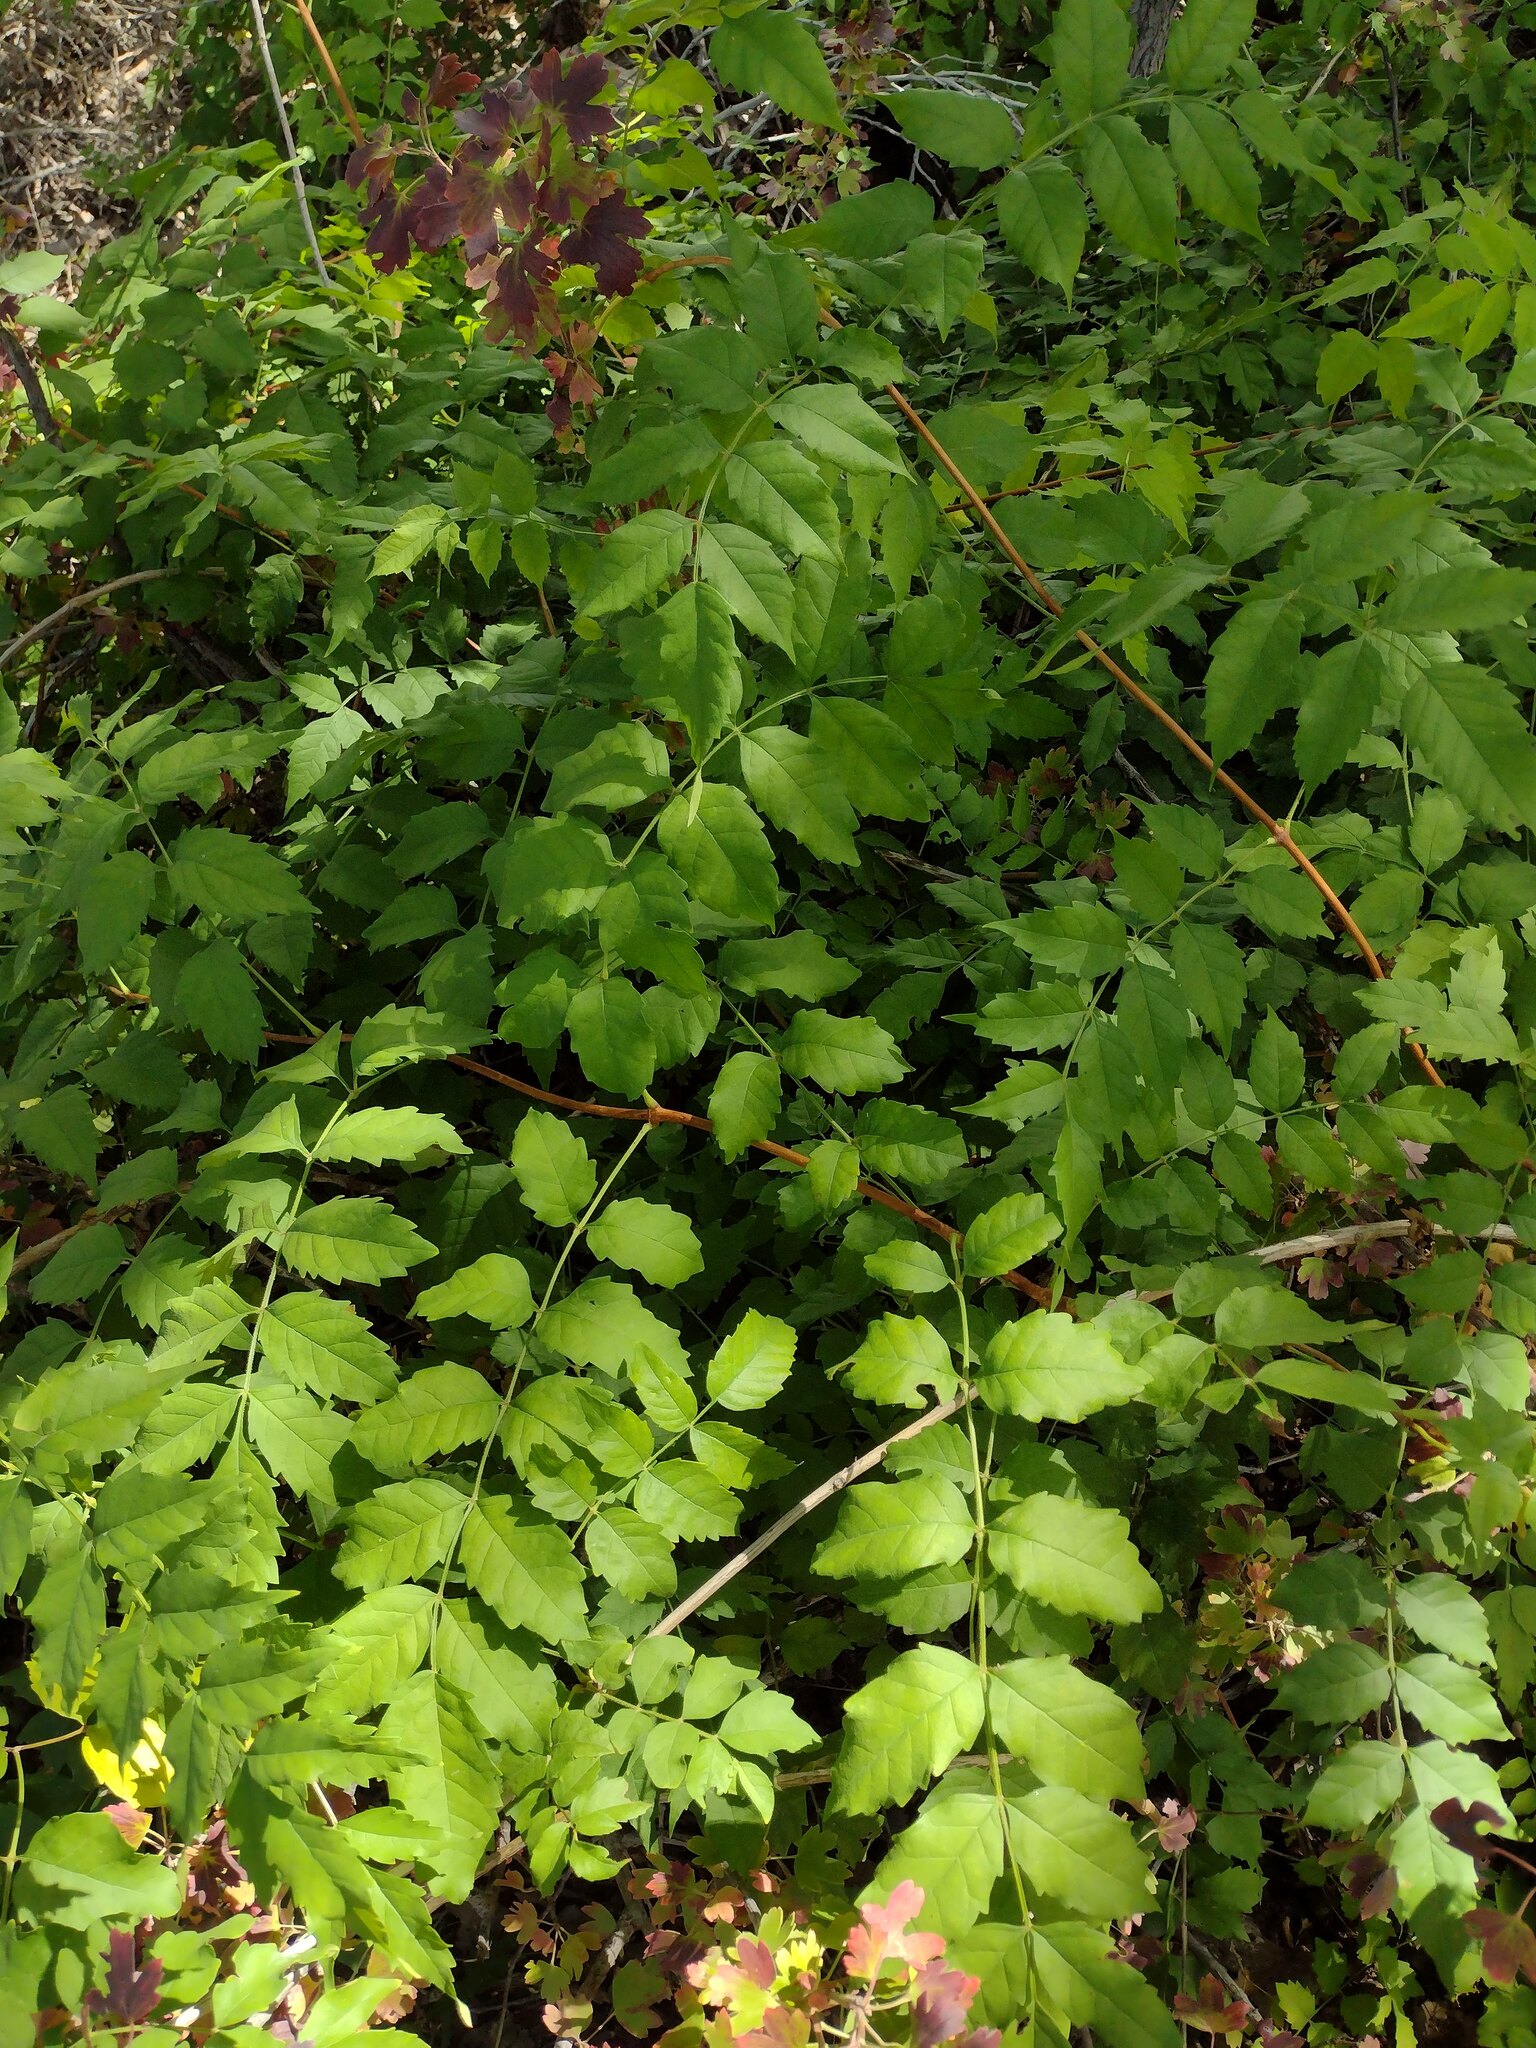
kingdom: Plantae
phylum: Tracheophyta
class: Magnoliopsida
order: Lamiales
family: Bignoniaceae
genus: Campsis
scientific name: Campsis radicans
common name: Trumpet-creeper
